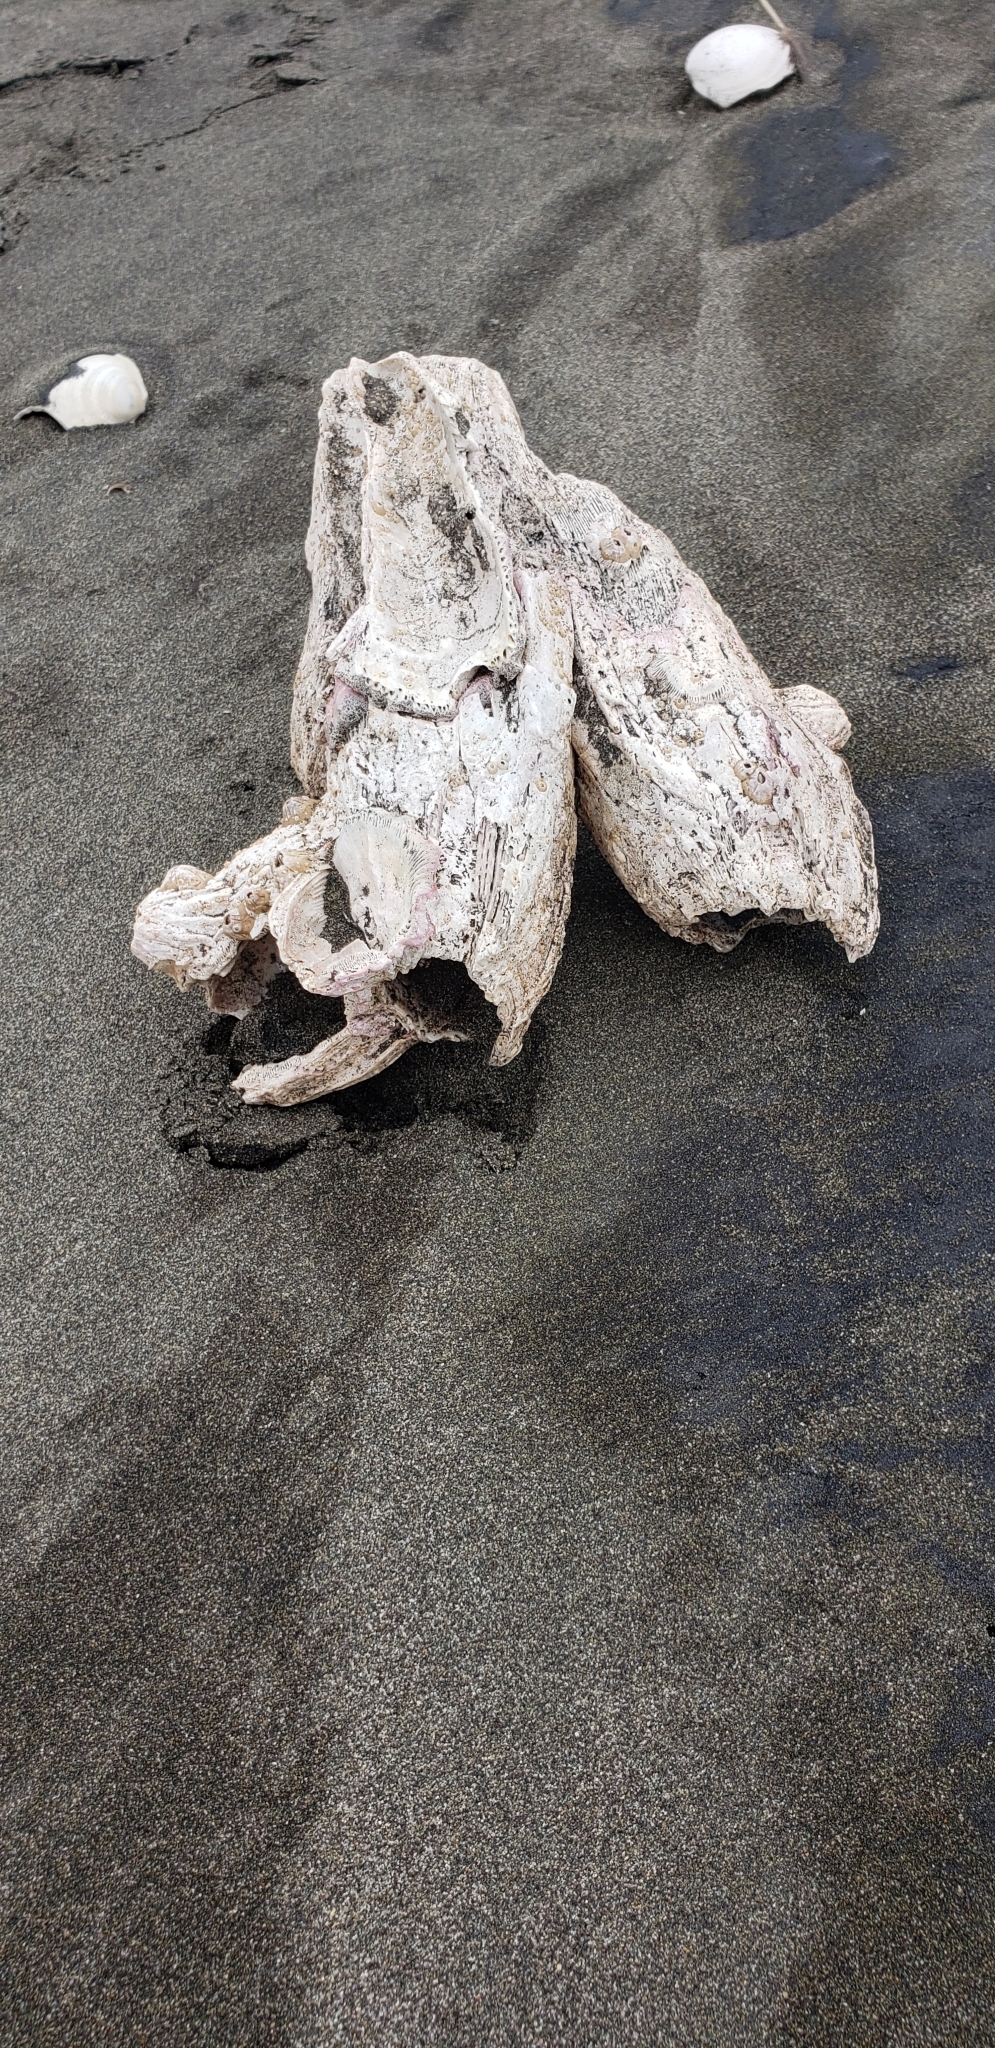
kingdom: Animalia
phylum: Arthropoda
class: Maxillopoda
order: Sessilia
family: Balanidae
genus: Austromegabalanus
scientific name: Austromegabalanus psittacus
